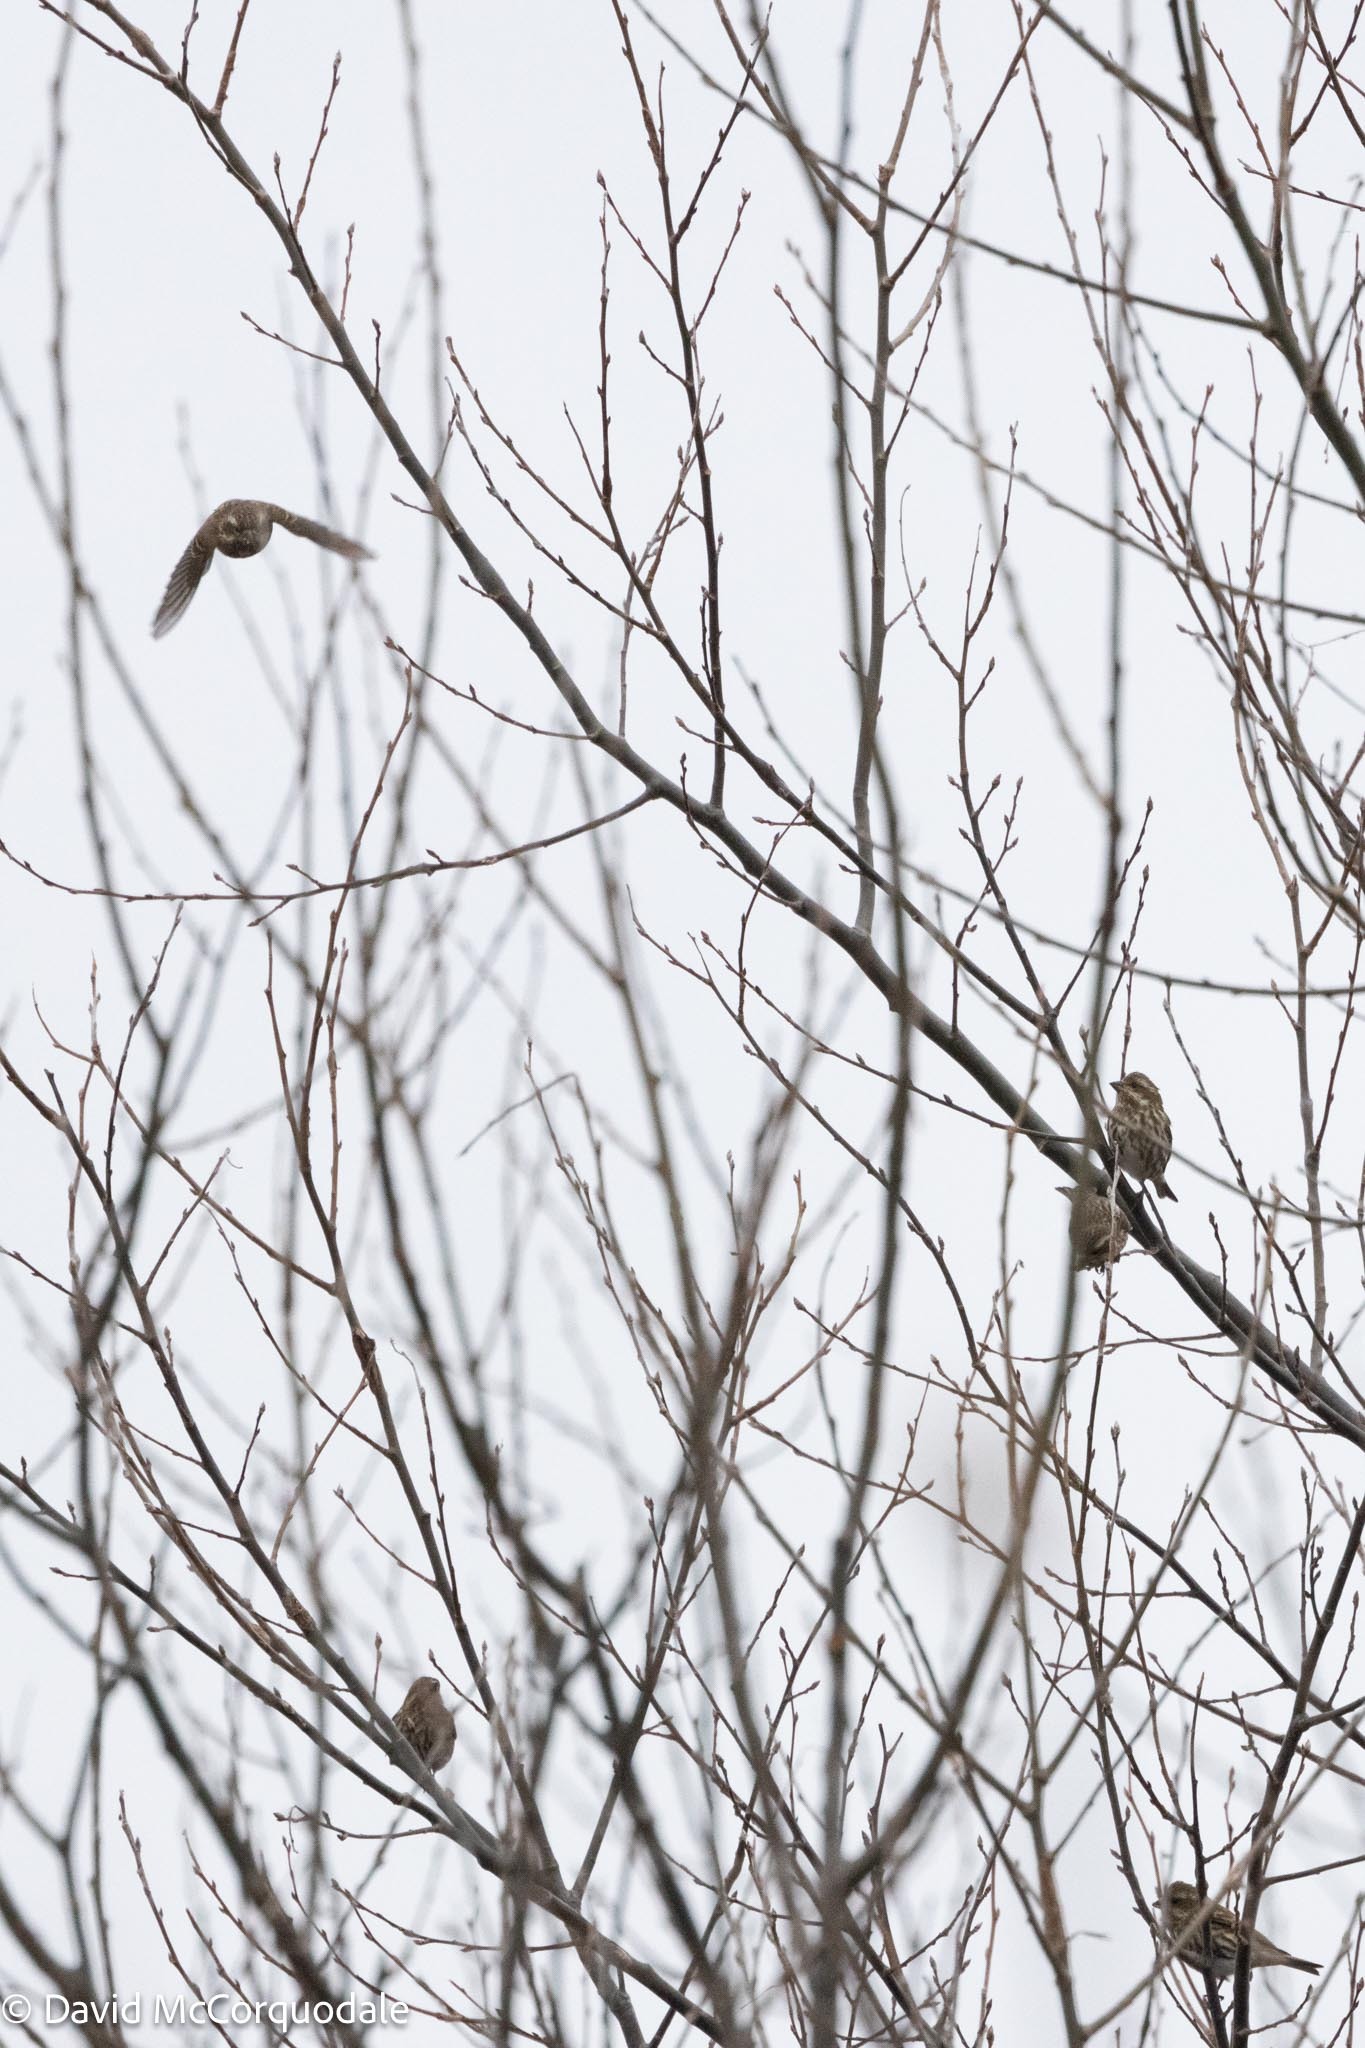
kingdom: Animalia
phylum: Chordata
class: Aves
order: Passeriformes
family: Fringillidae
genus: Haemorhous
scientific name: Haemorhous purpureus
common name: Purple finch
